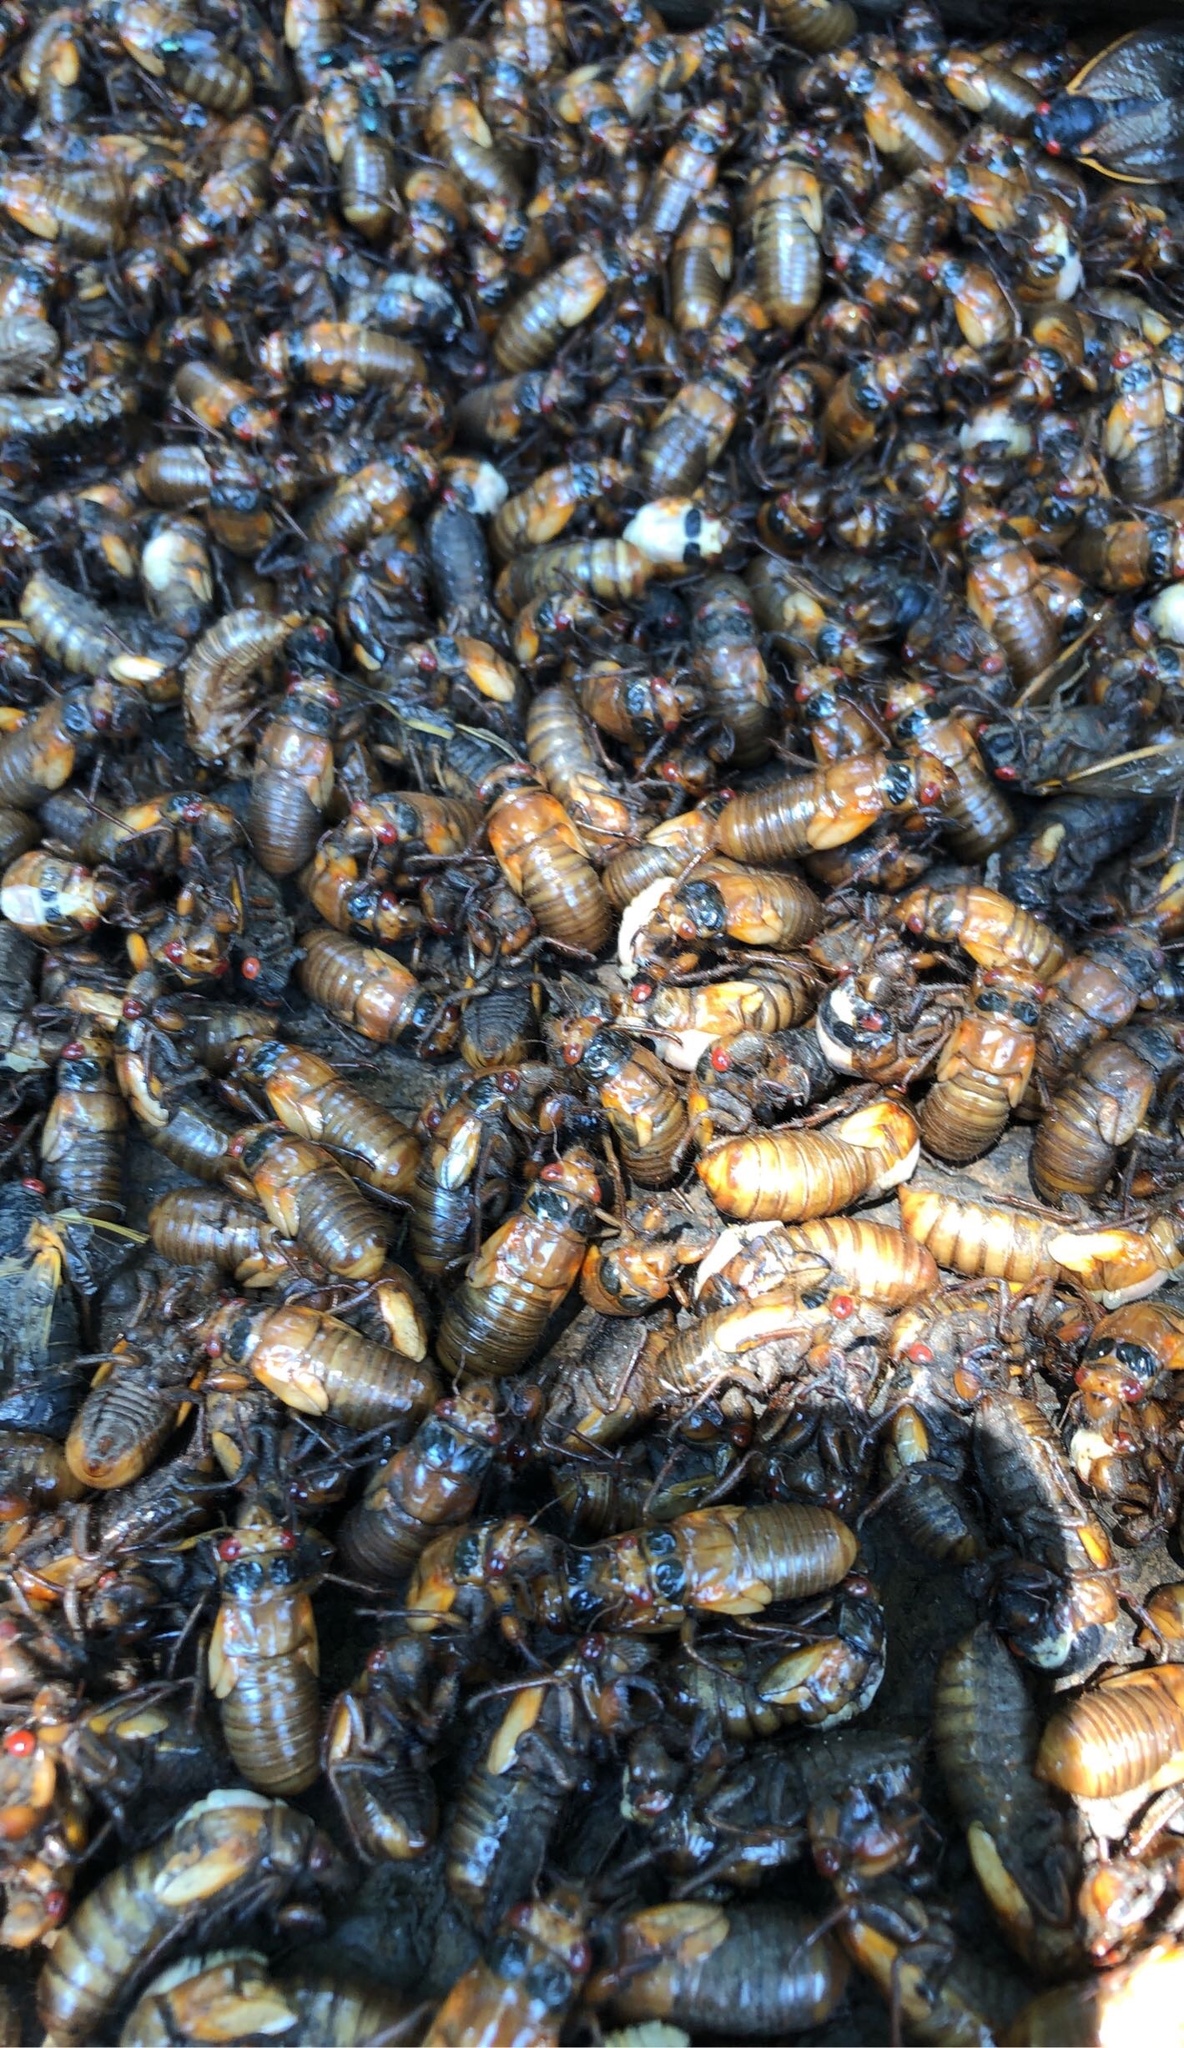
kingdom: Animalia
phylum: Arthropoda
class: Insecta
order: Hemiptera
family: Cicadidae
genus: Magicicada
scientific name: Magicicada septendecim
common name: Periodical cicada
